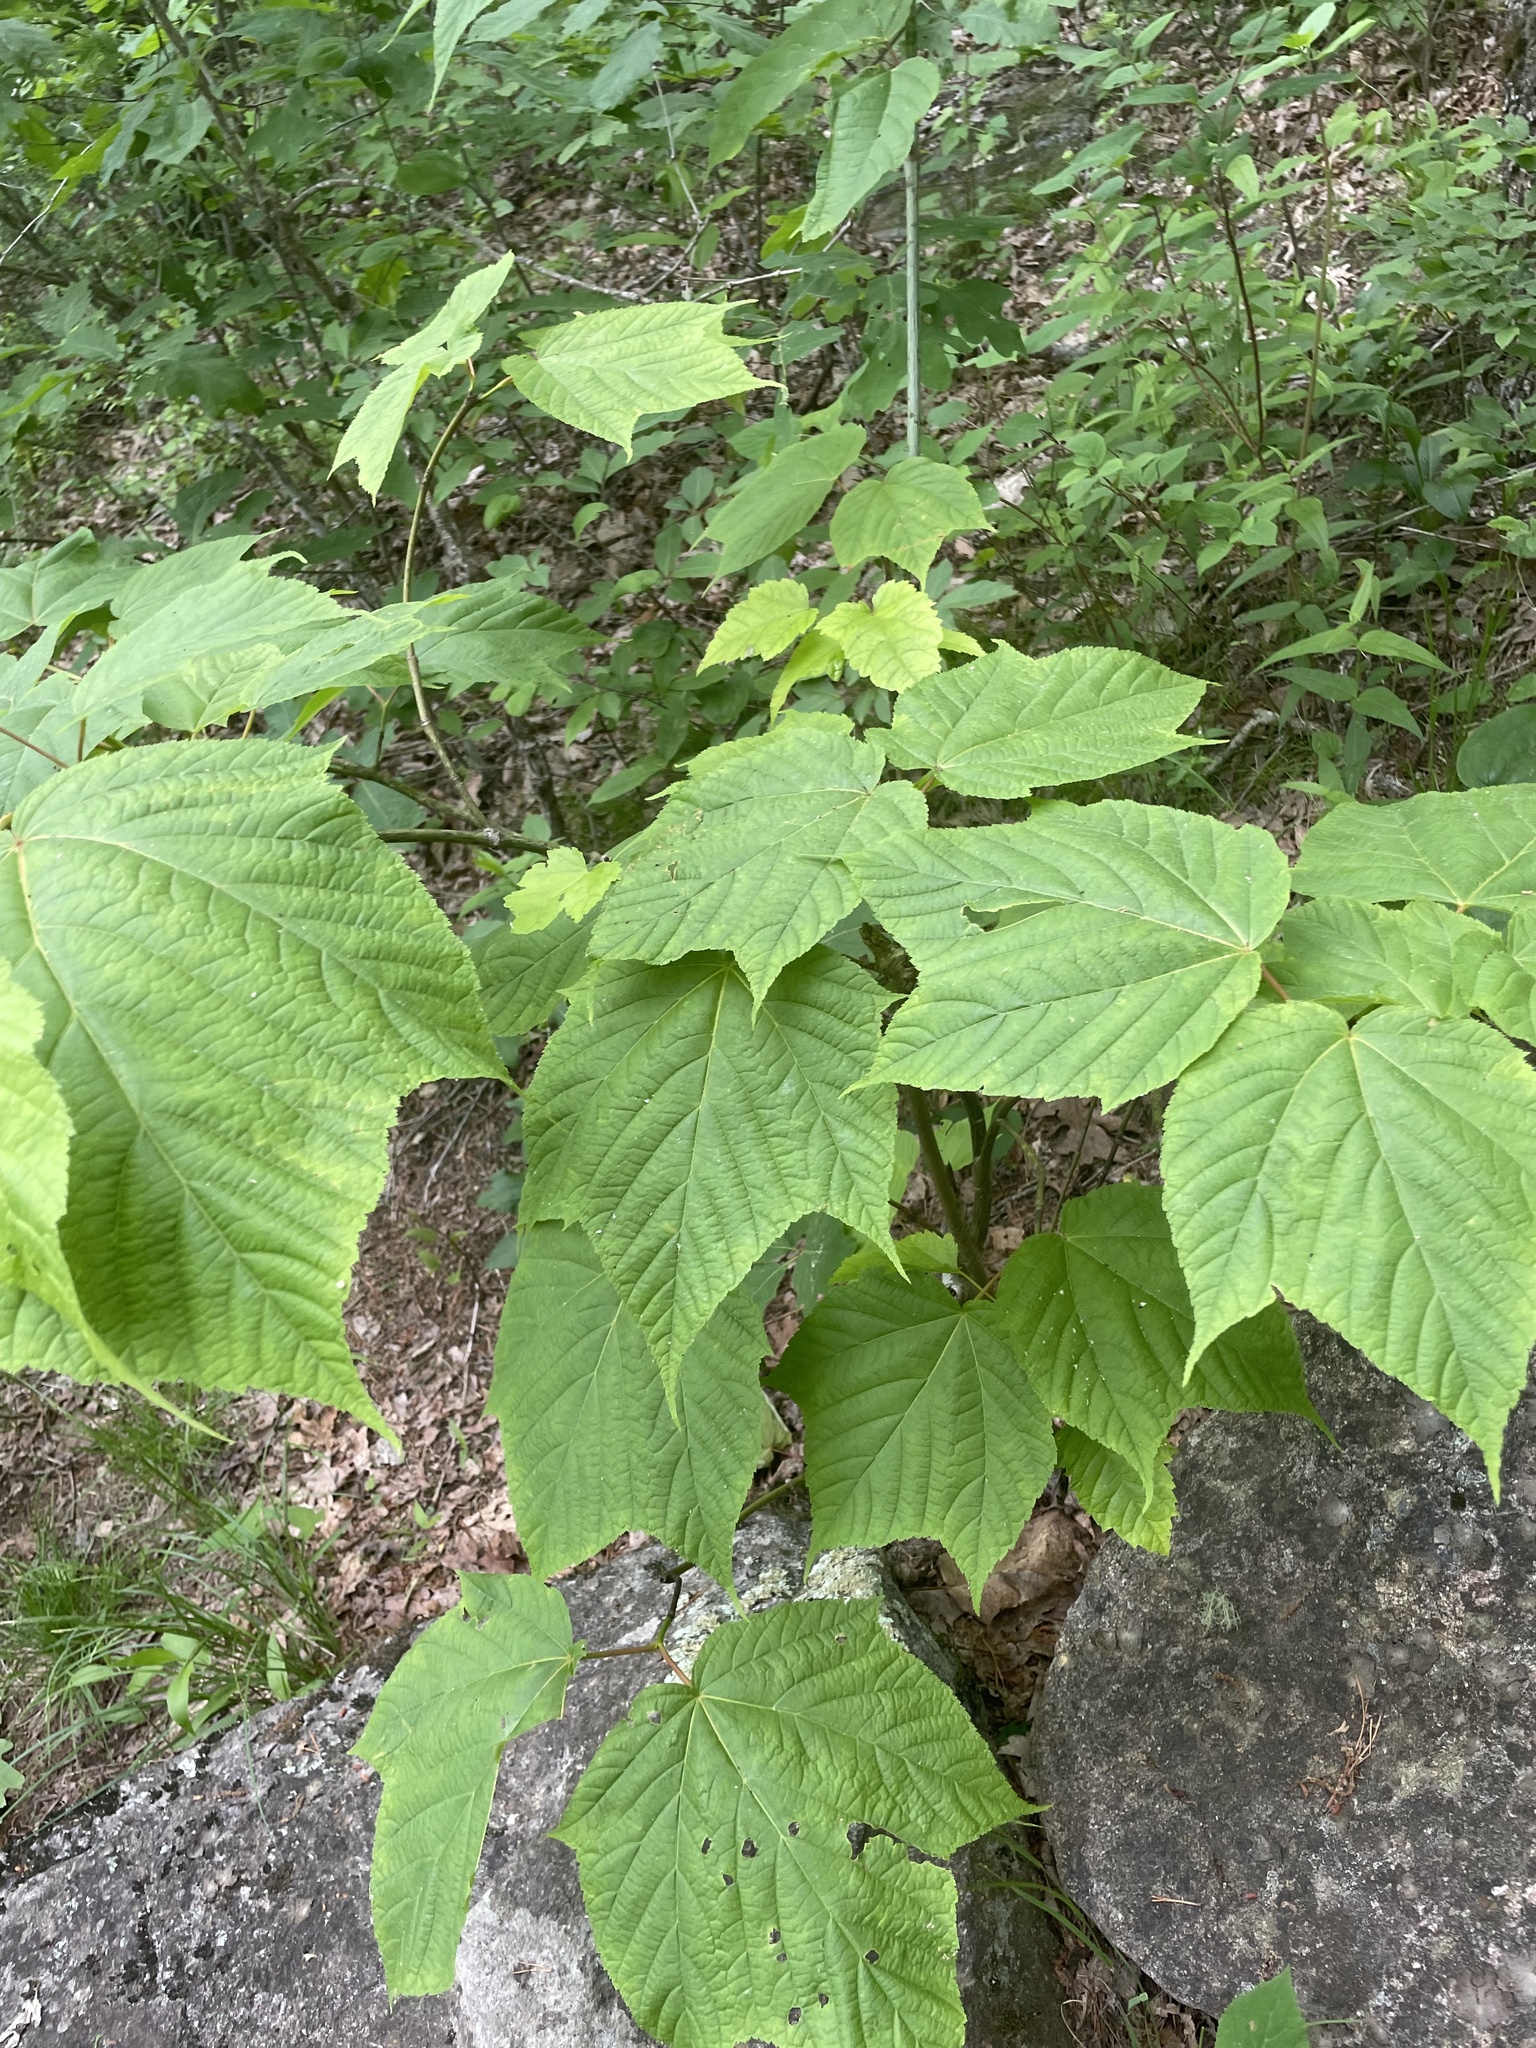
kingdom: Plantae
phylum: Tracheophyta
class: Magnoliopsida
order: Sapindales
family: Sapindaceae
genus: Acer
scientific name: Acer pensylvanicum
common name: Moosewood
